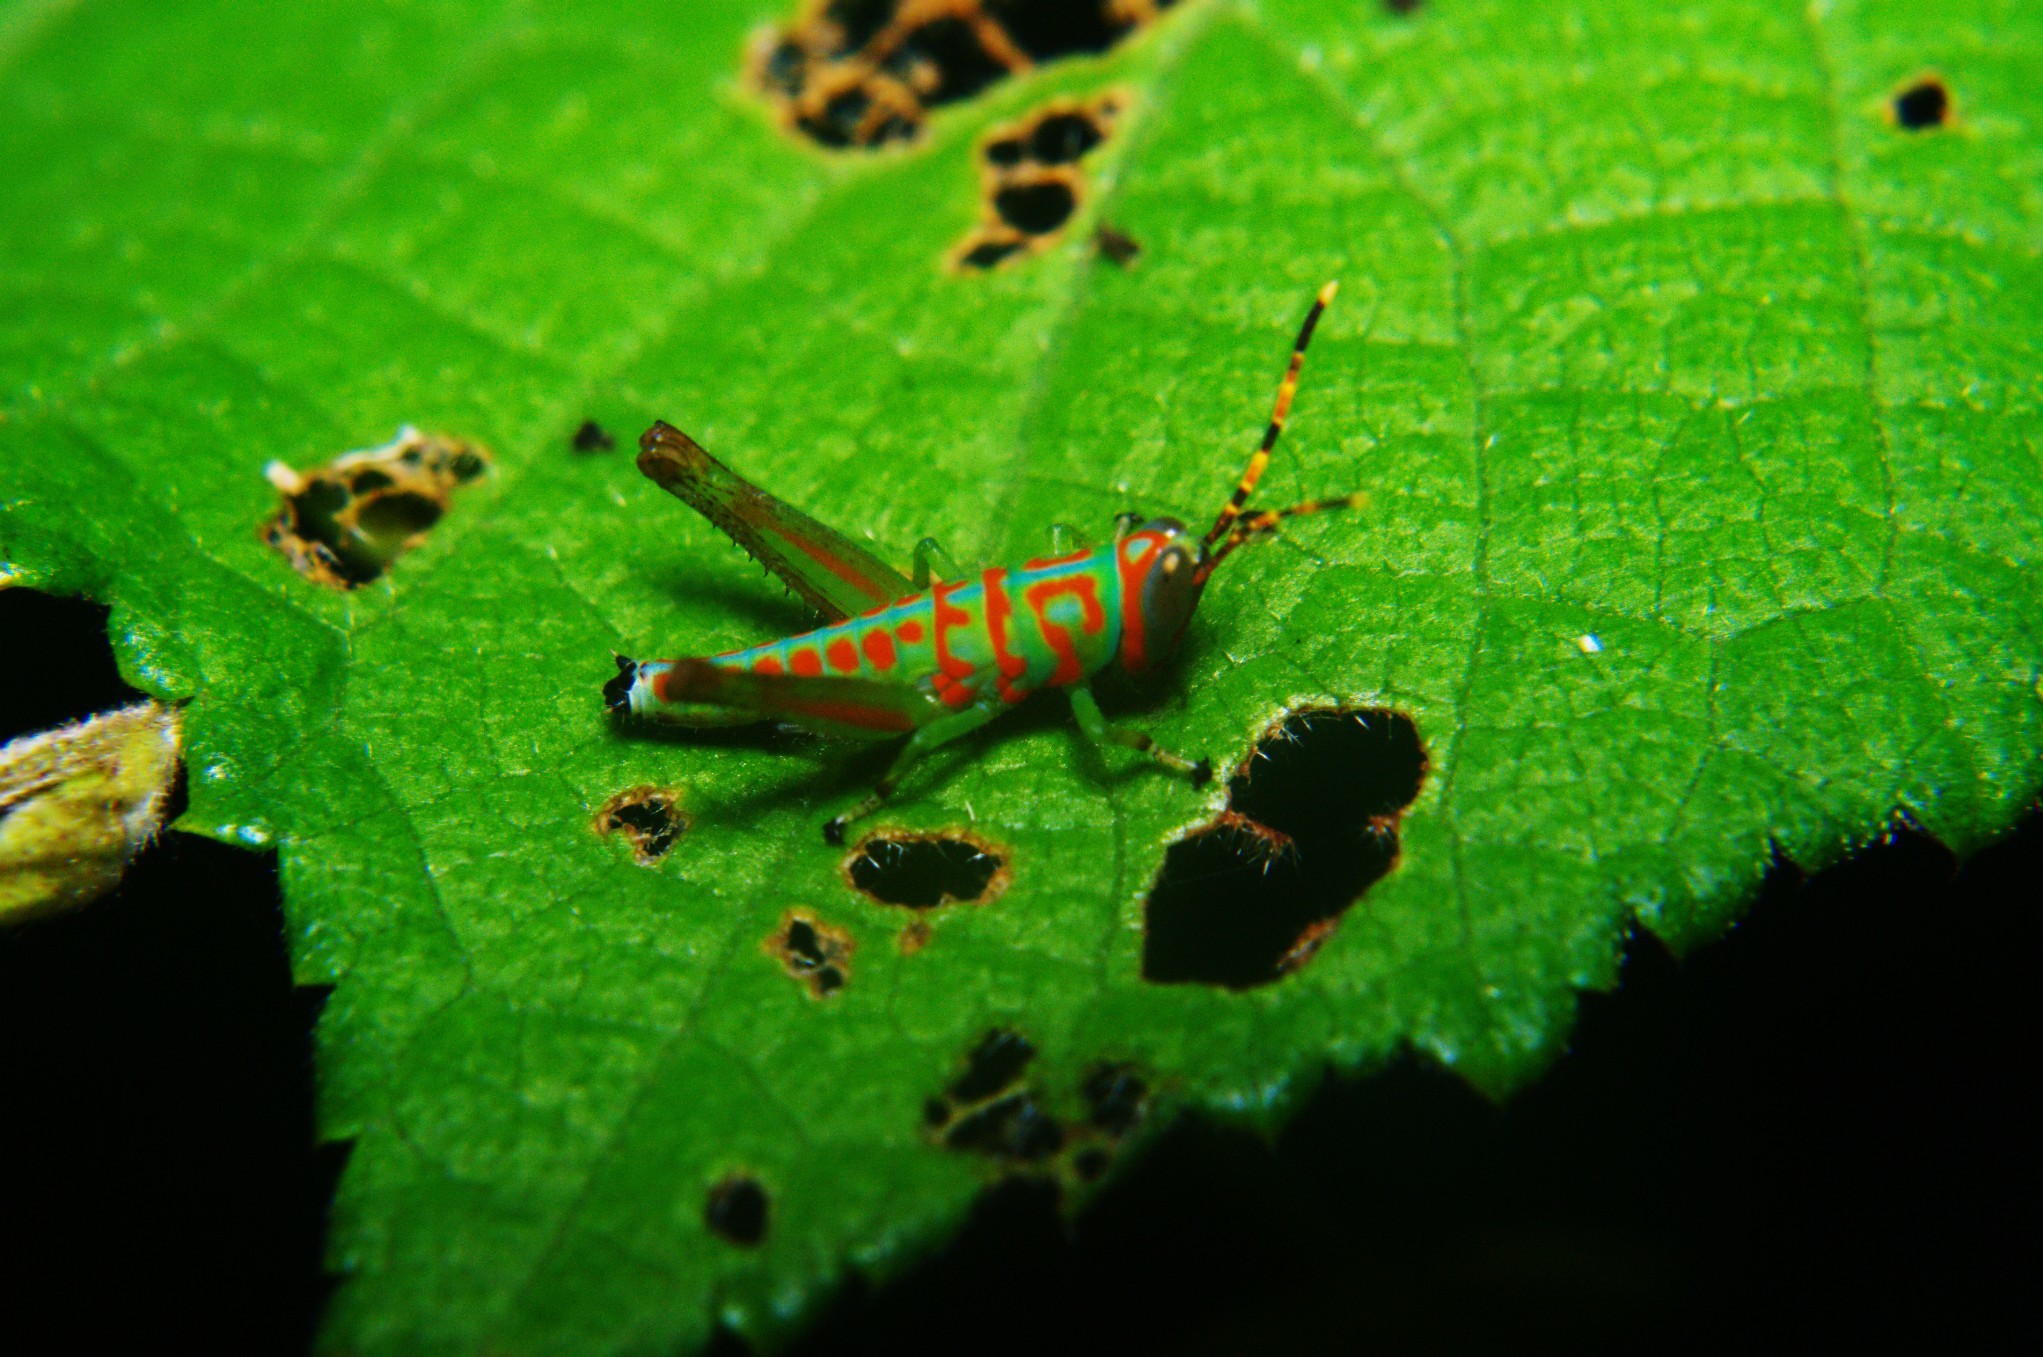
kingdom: Animalia
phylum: Arthropoda
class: Insecta
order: Orthoptera
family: Acrididae
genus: Pirithoicus
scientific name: Pirithoicus ophthalmicus
